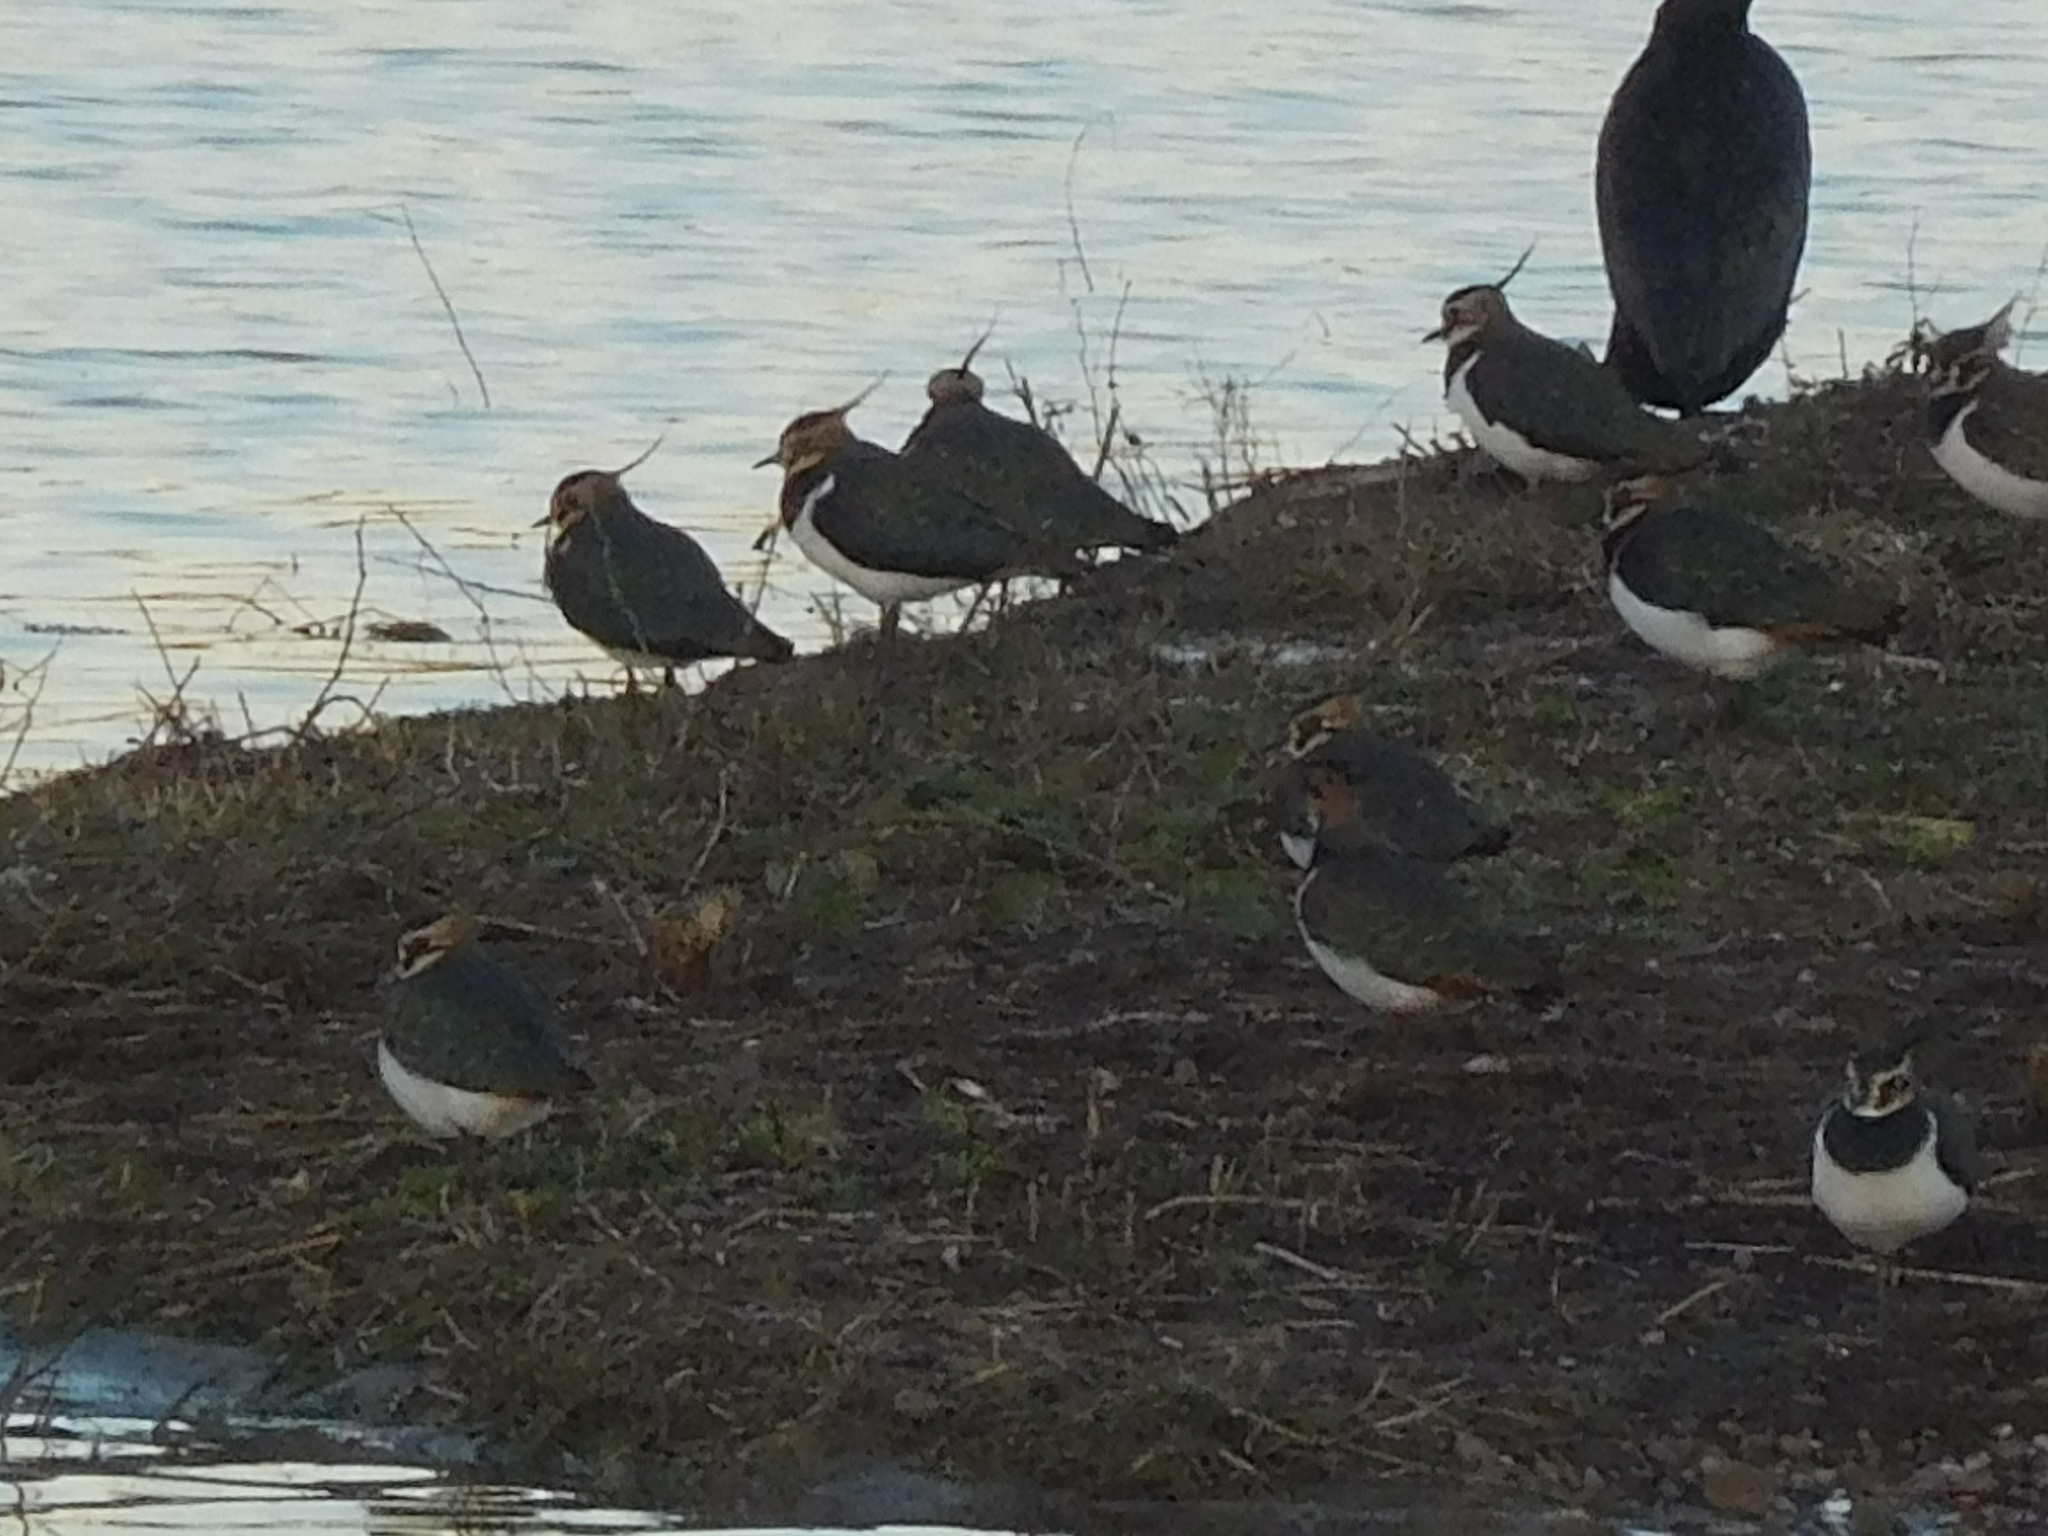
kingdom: Animalia
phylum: Chordata
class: Aves
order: Charadriiformes
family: Charadriidae
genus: Vanellus
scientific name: Vanellus vanellus
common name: Northern lapwing
